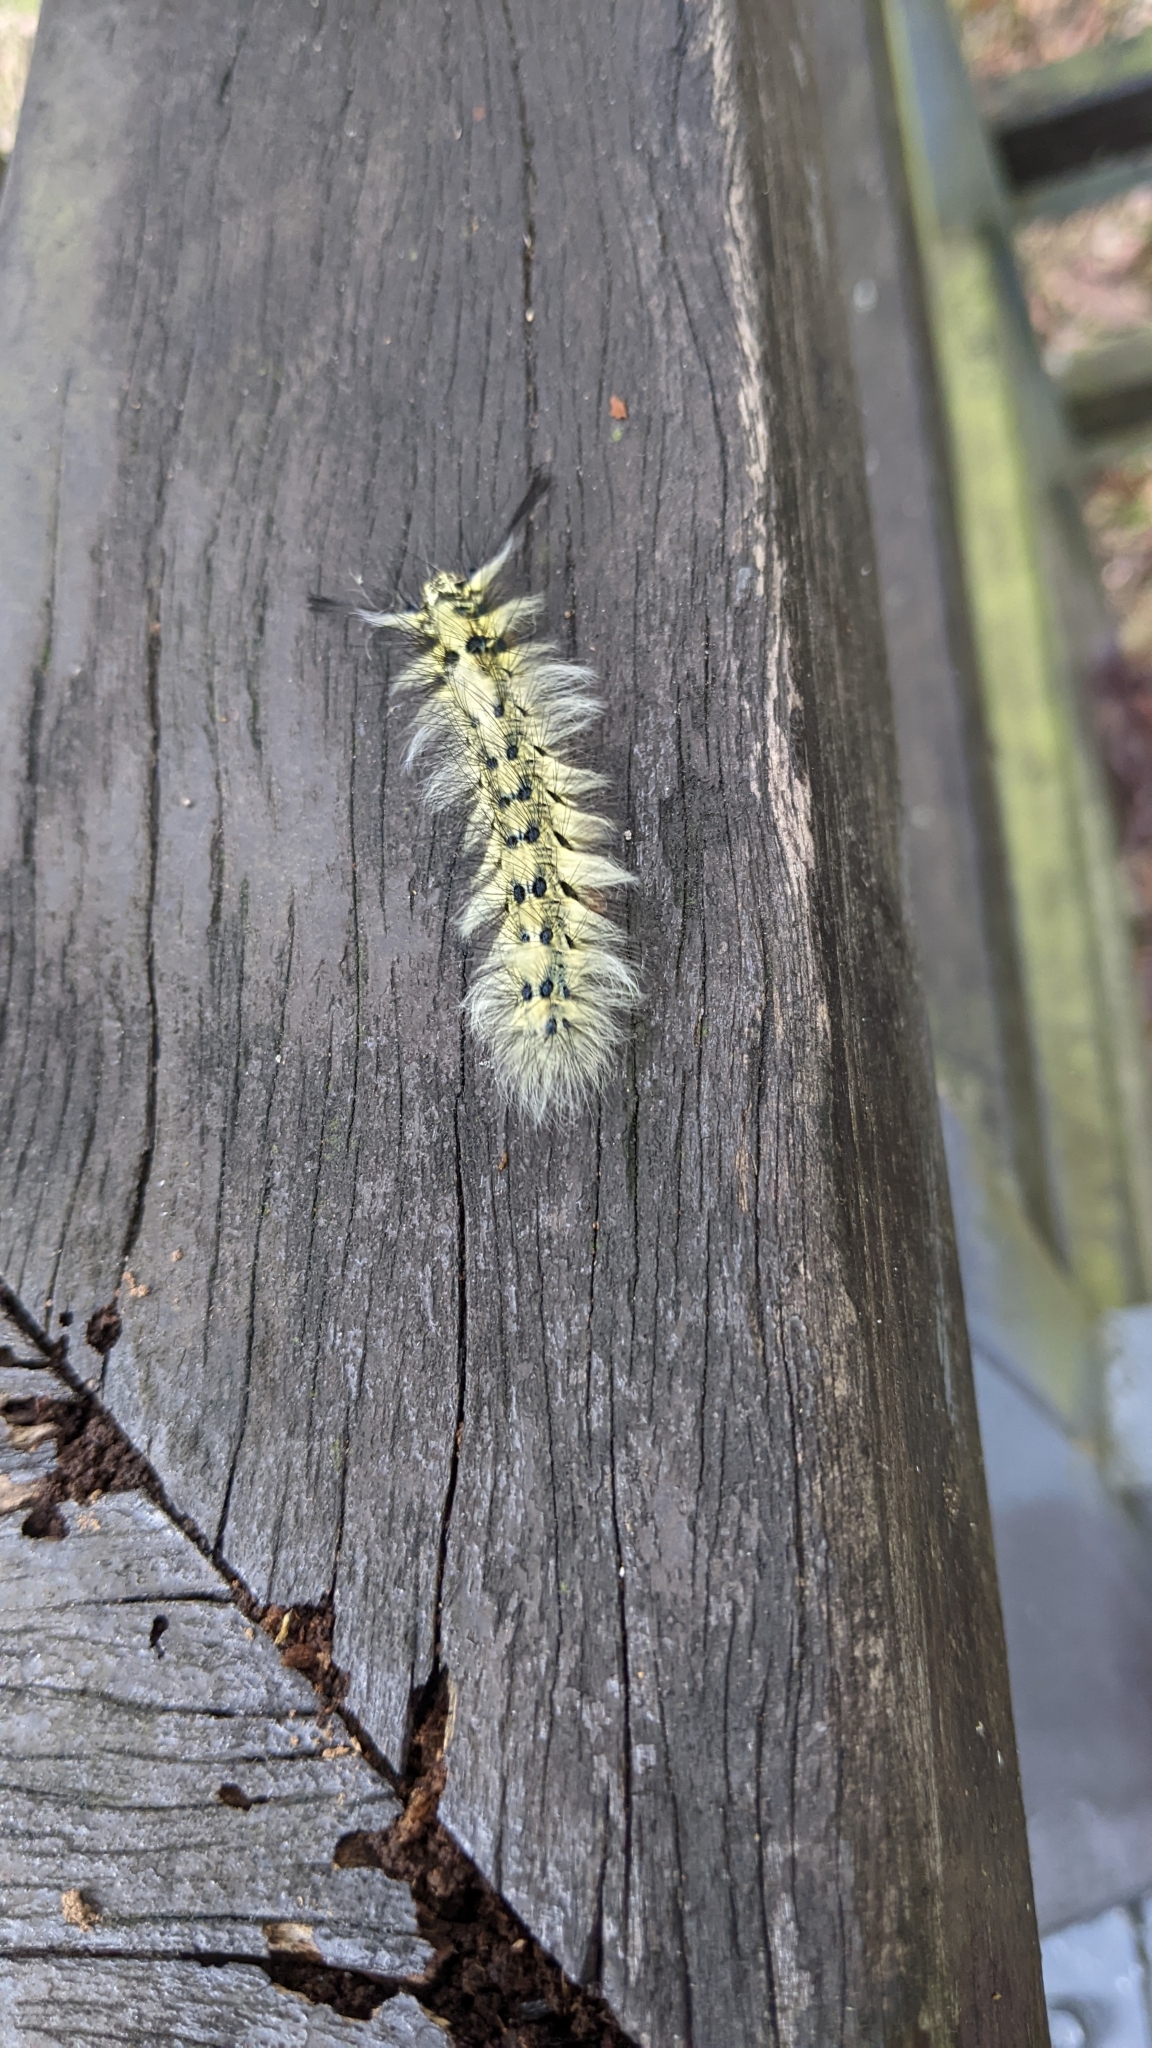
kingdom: Animalia
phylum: Arthropoda
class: Insecta
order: Lepidoptera
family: Lasiocampidae
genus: Trabala
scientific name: Trabala vishnou
